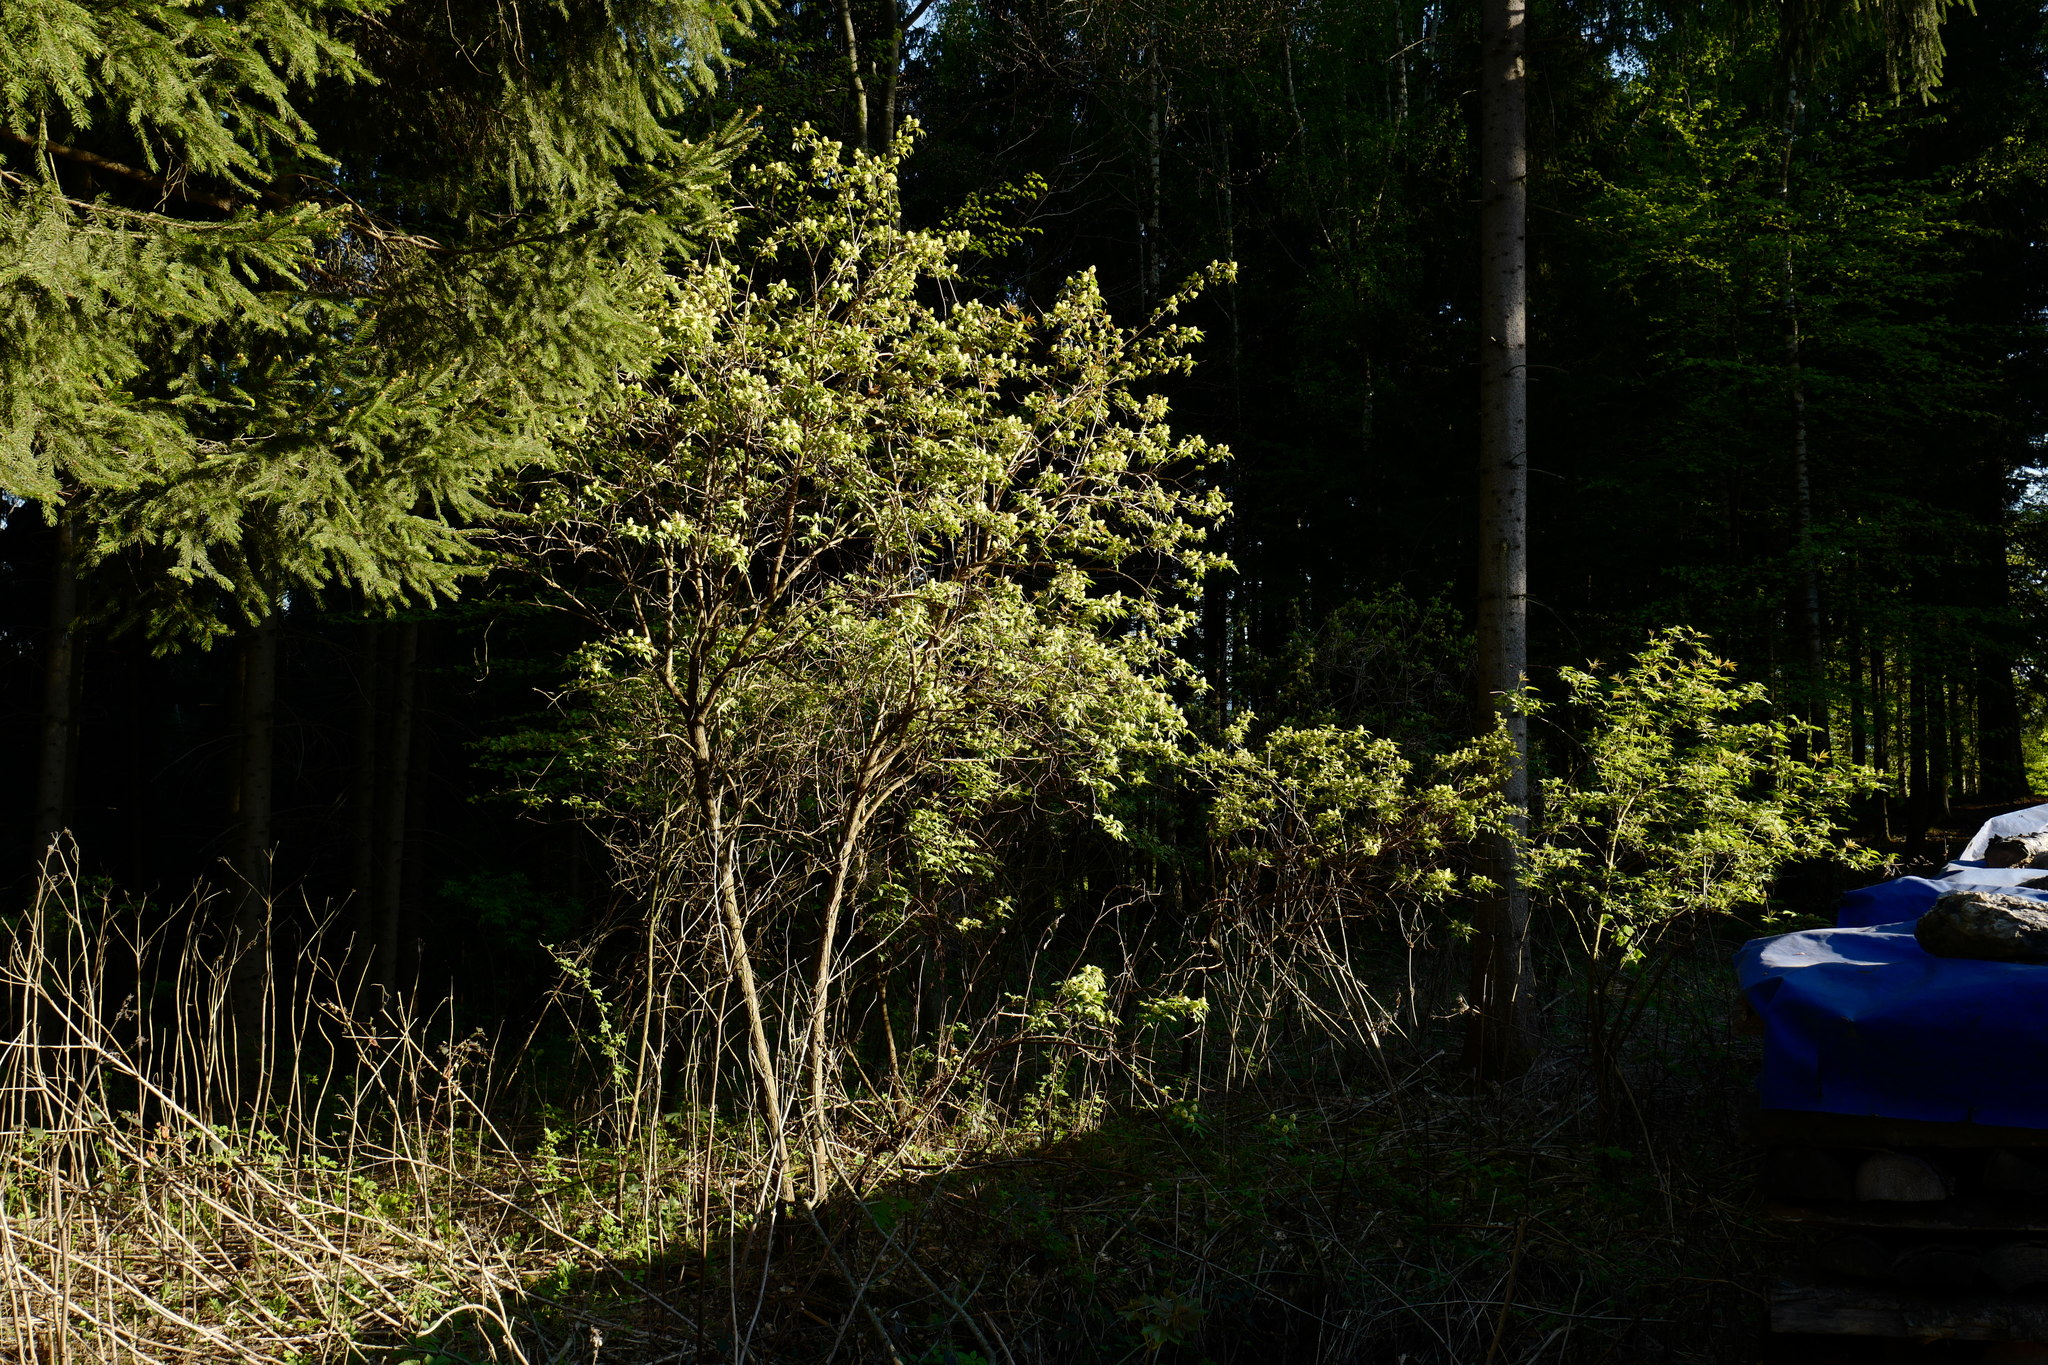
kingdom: Plantae
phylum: Tracheophyta
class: Magnoliopsida
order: Dipsacales
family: Viburnaceae
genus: Sambucus
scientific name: Sambucus racemosa
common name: Red-berried elder
